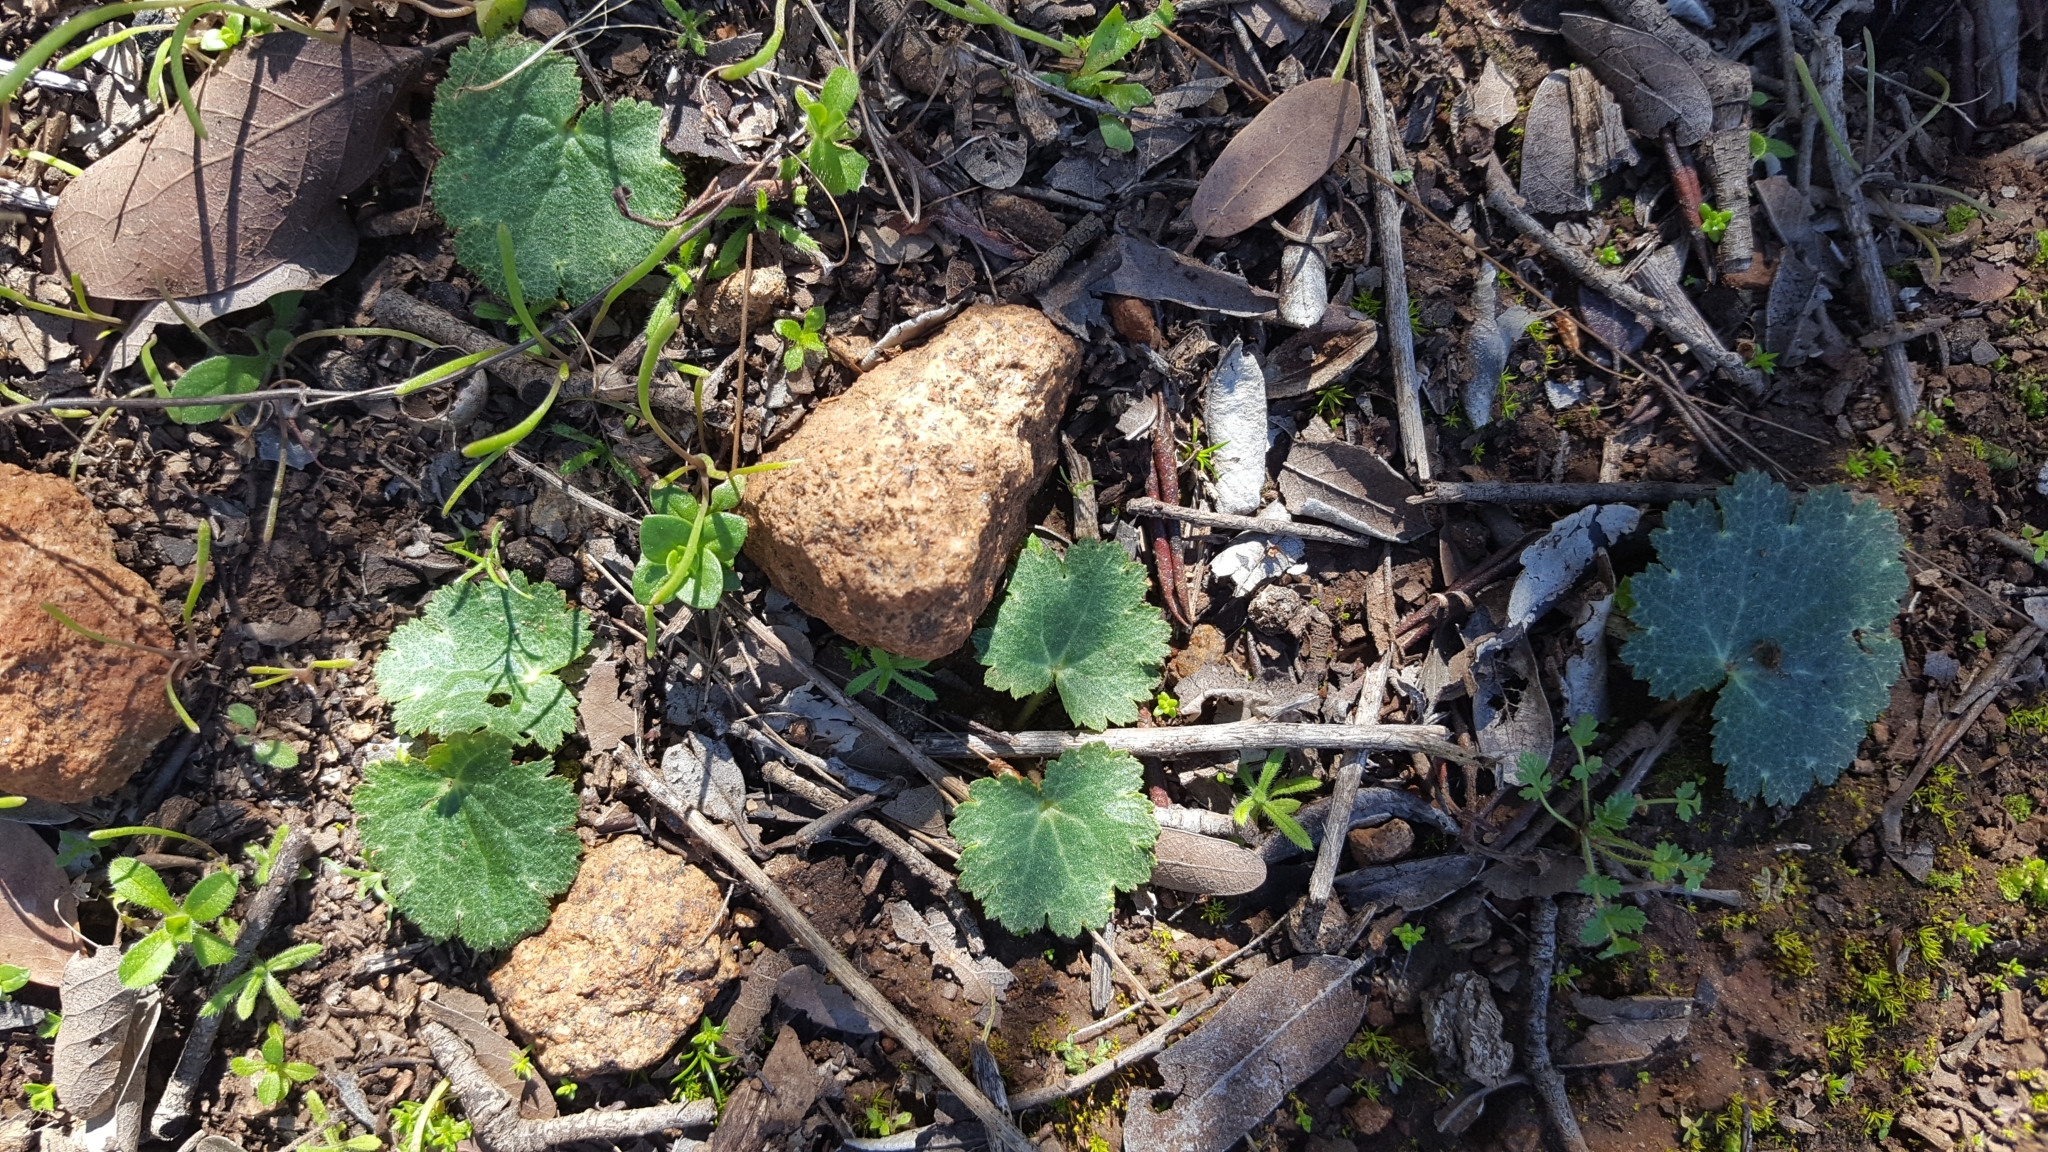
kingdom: Plantae
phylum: Tracheophyta
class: Magnoliopsida
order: Saxifragales
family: Saxifragaceae
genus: Jepsonia
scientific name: Jepsonia parryi
